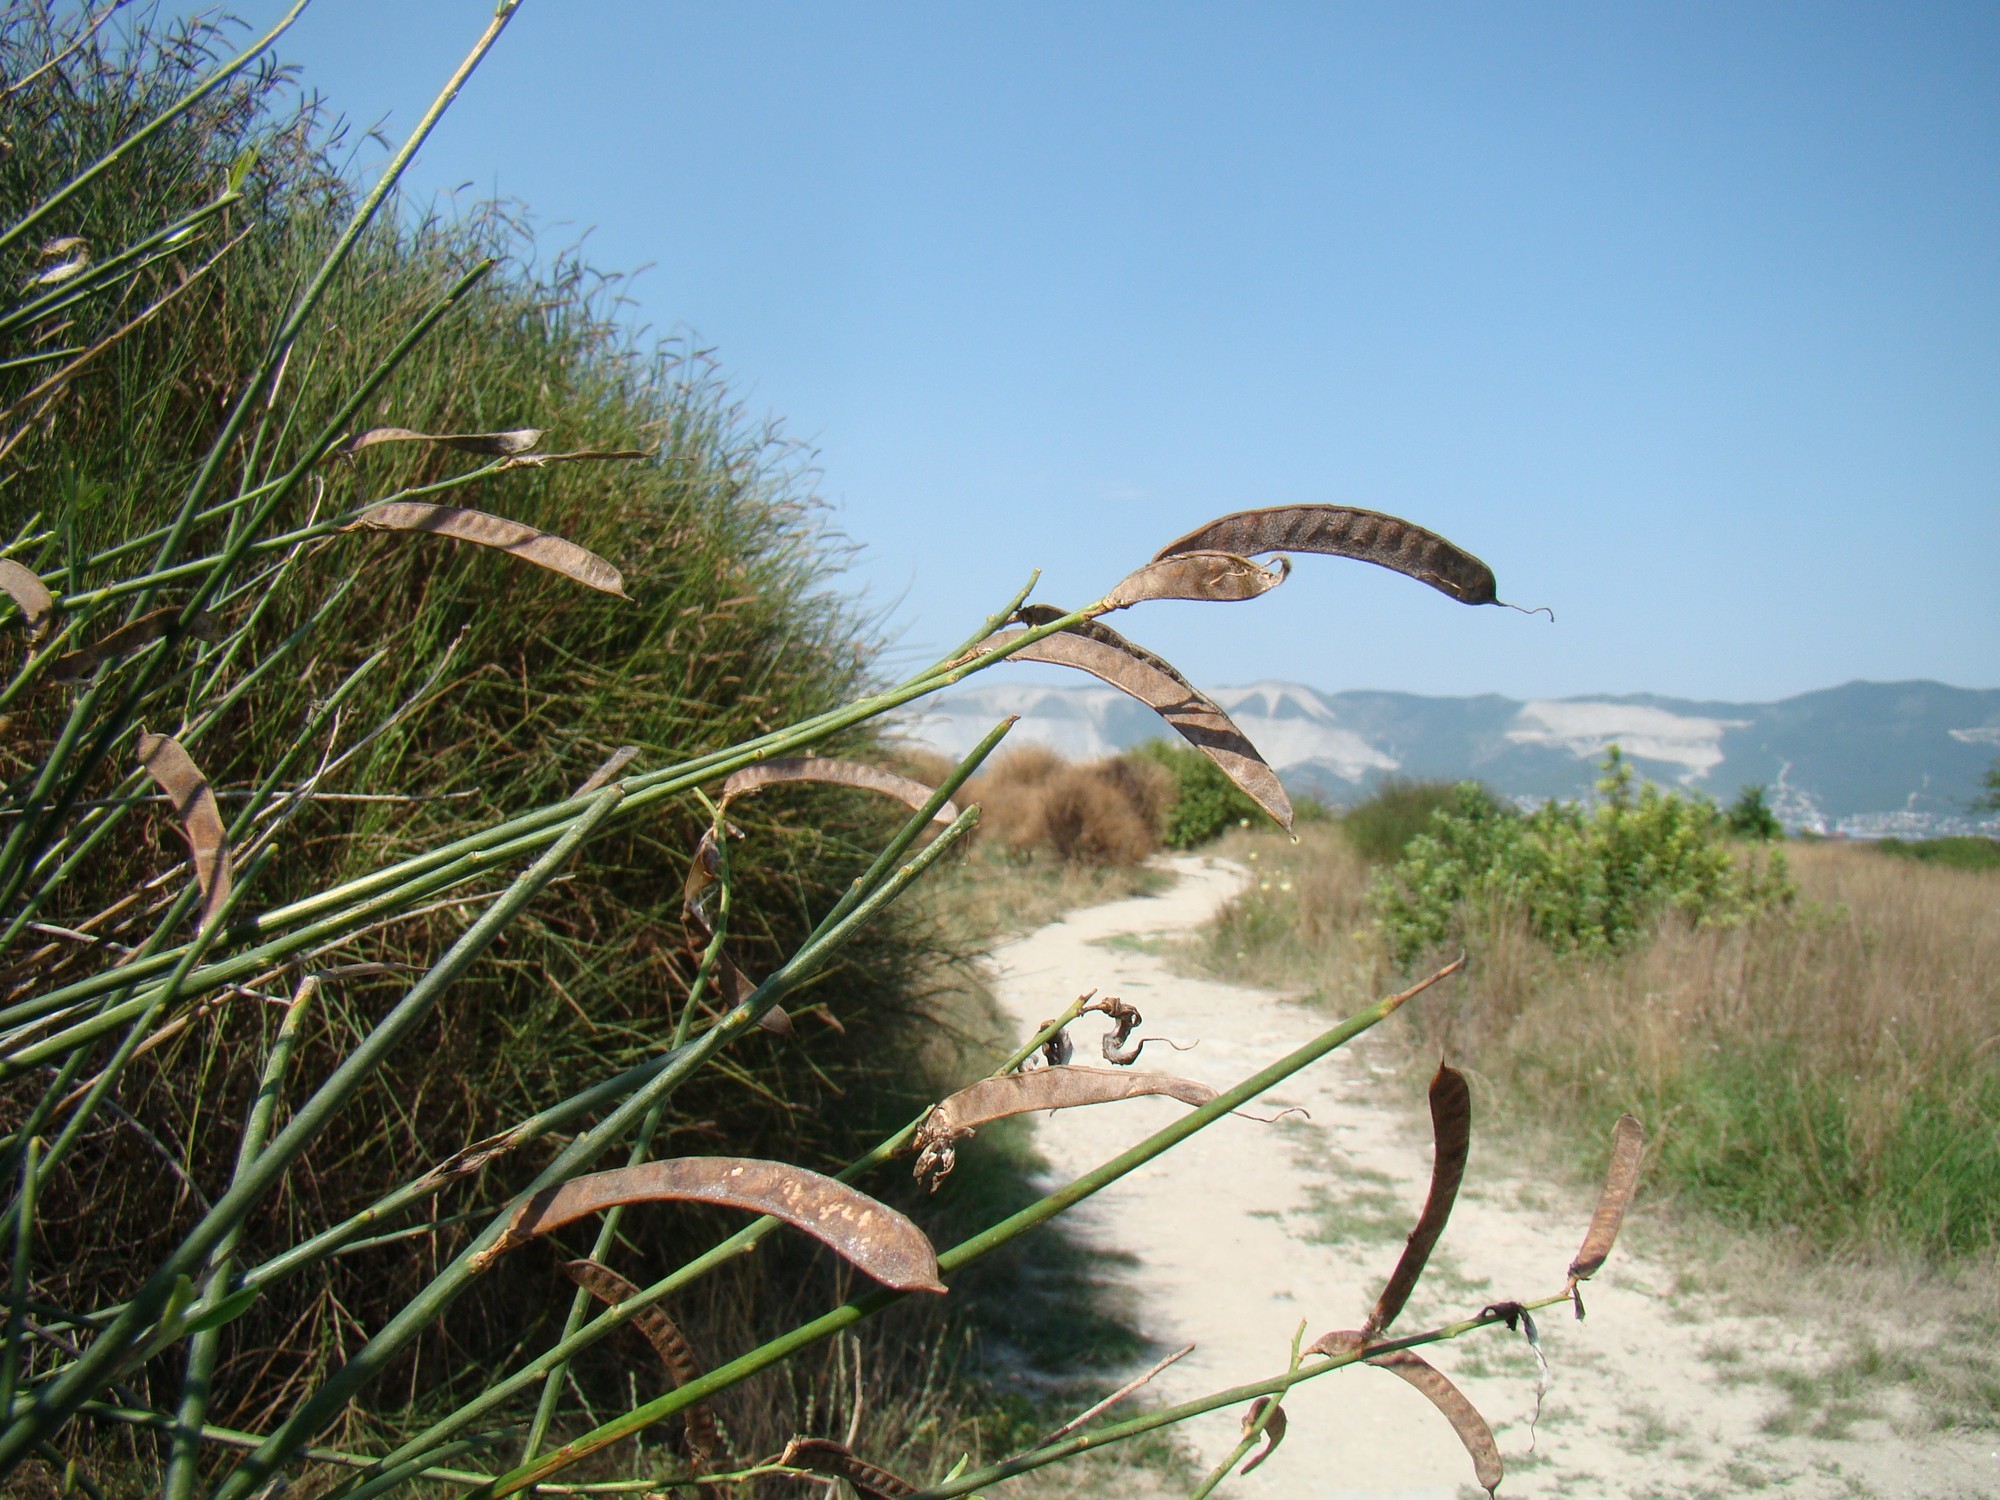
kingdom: Plantae
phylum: Tracheophyta
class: Magnoliopsida
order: Fabales
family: Fabaceae
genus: Spartium
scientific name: Spartium junceum
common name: Spanish broom
